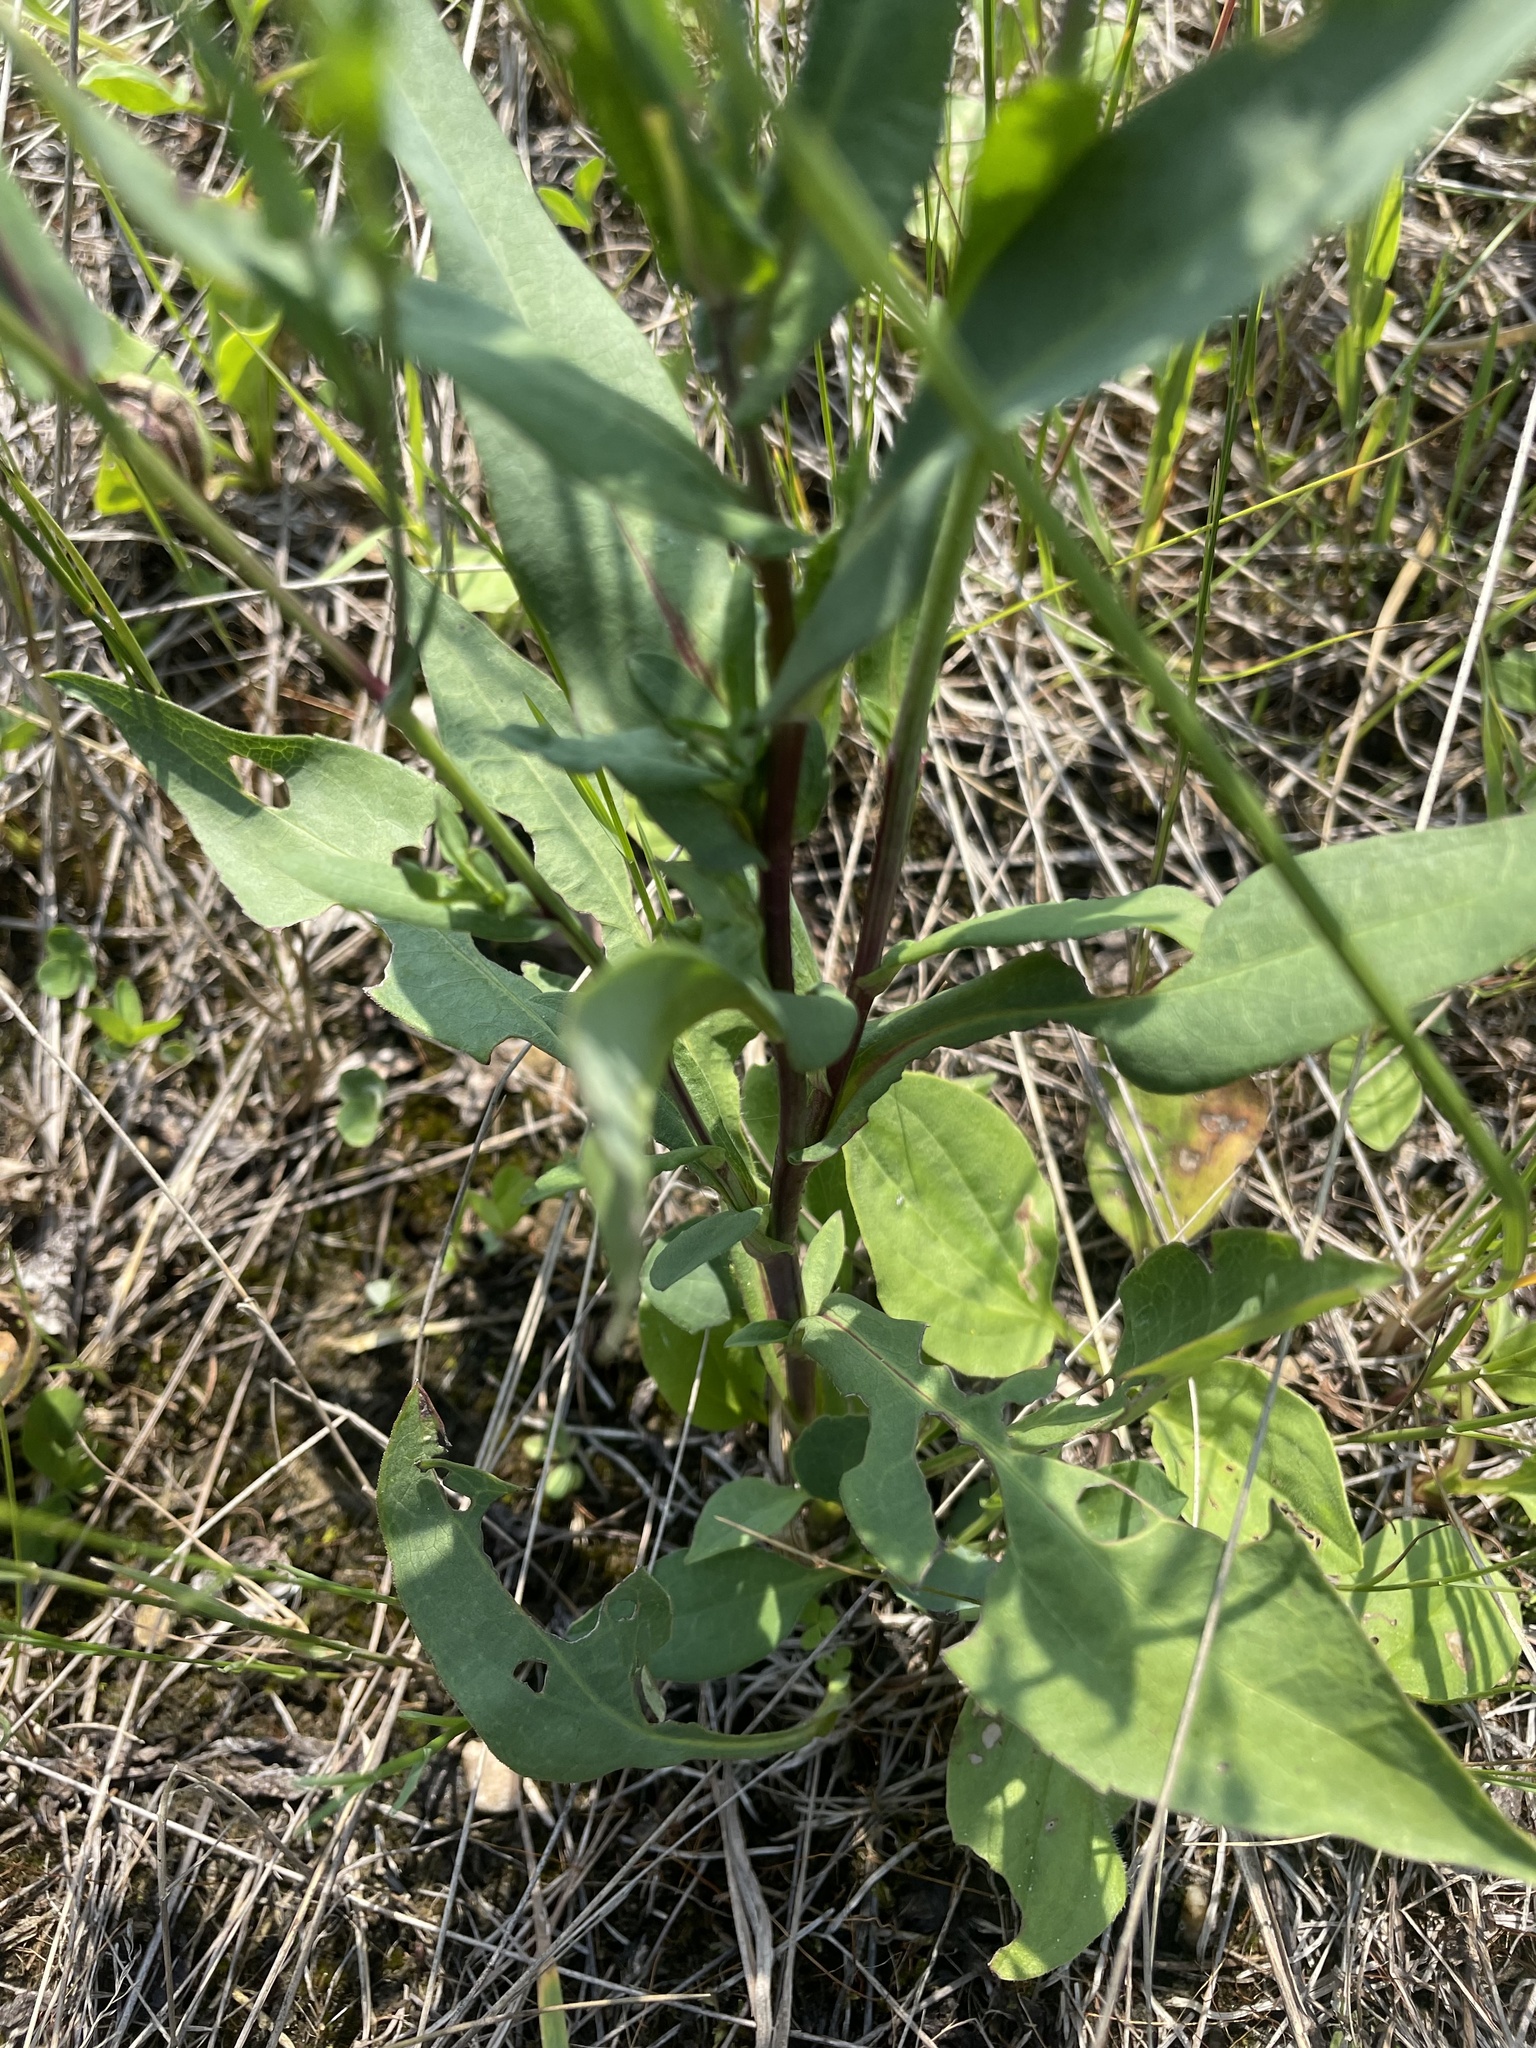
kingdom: Plantae
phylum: Tracheophyta
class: Magnoliopsida
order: Asterales
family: Asteraceae
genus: Symphyotrichum
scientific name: Symphyotrichum laeve
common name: Glaucous aster
